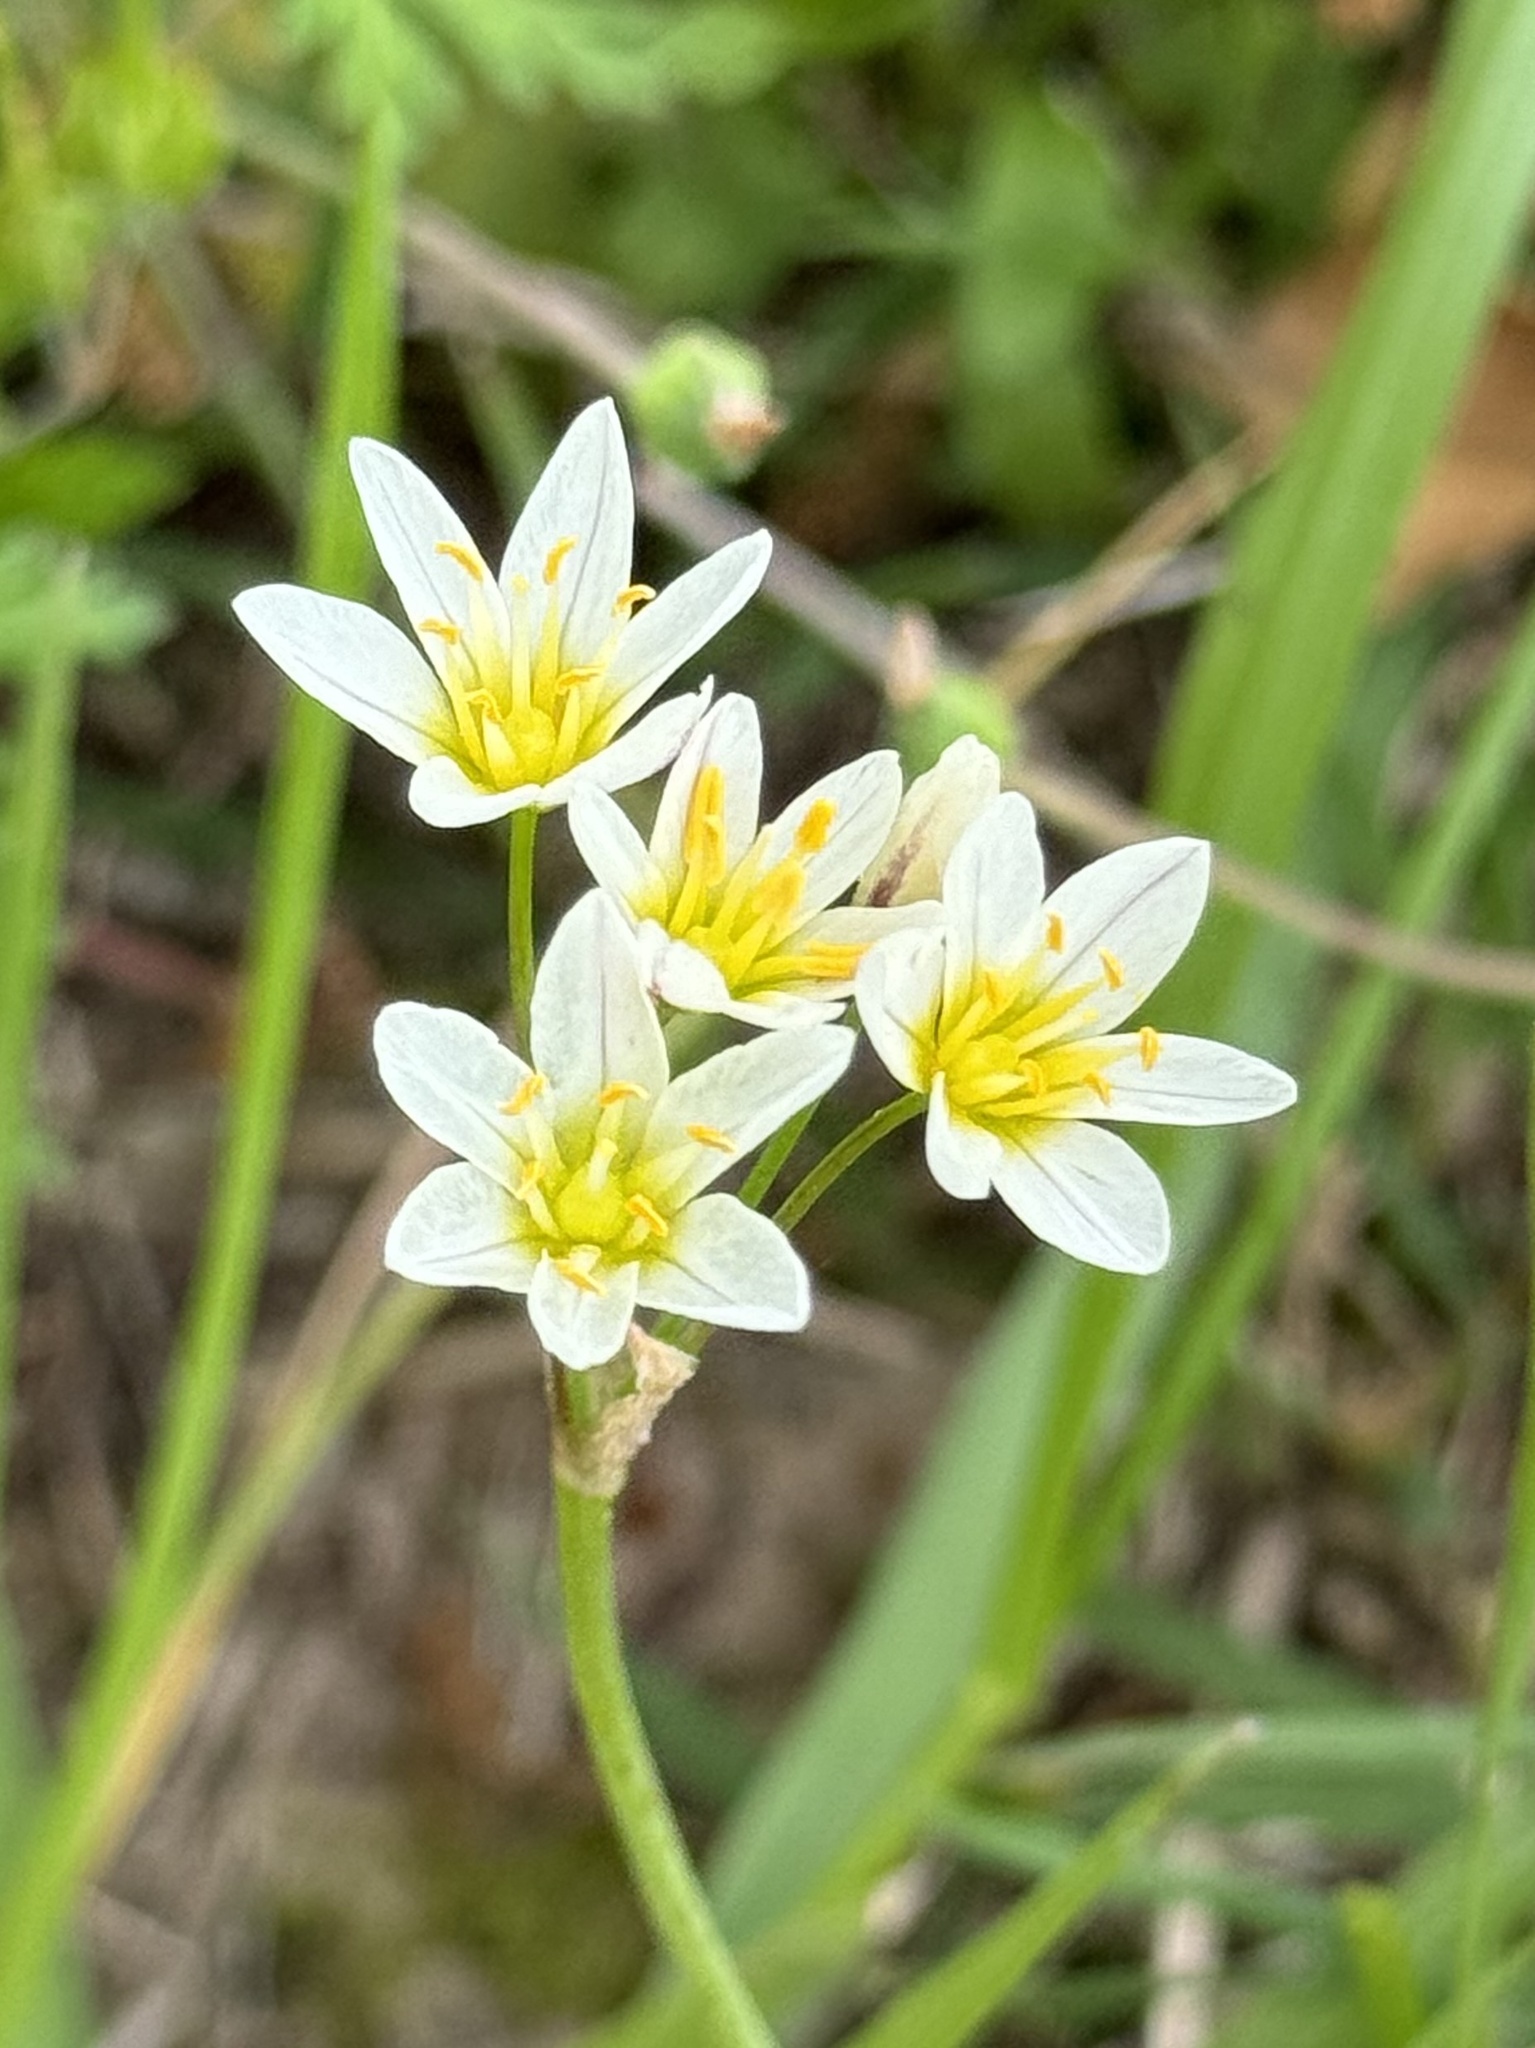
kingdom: Plantae
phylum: Tracheophyta
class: Liliopsida
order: Asparagales
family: Amaryllidaceae
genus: Nothoscordum
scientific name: Nothoscordum bivalve
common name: Crow-poison
